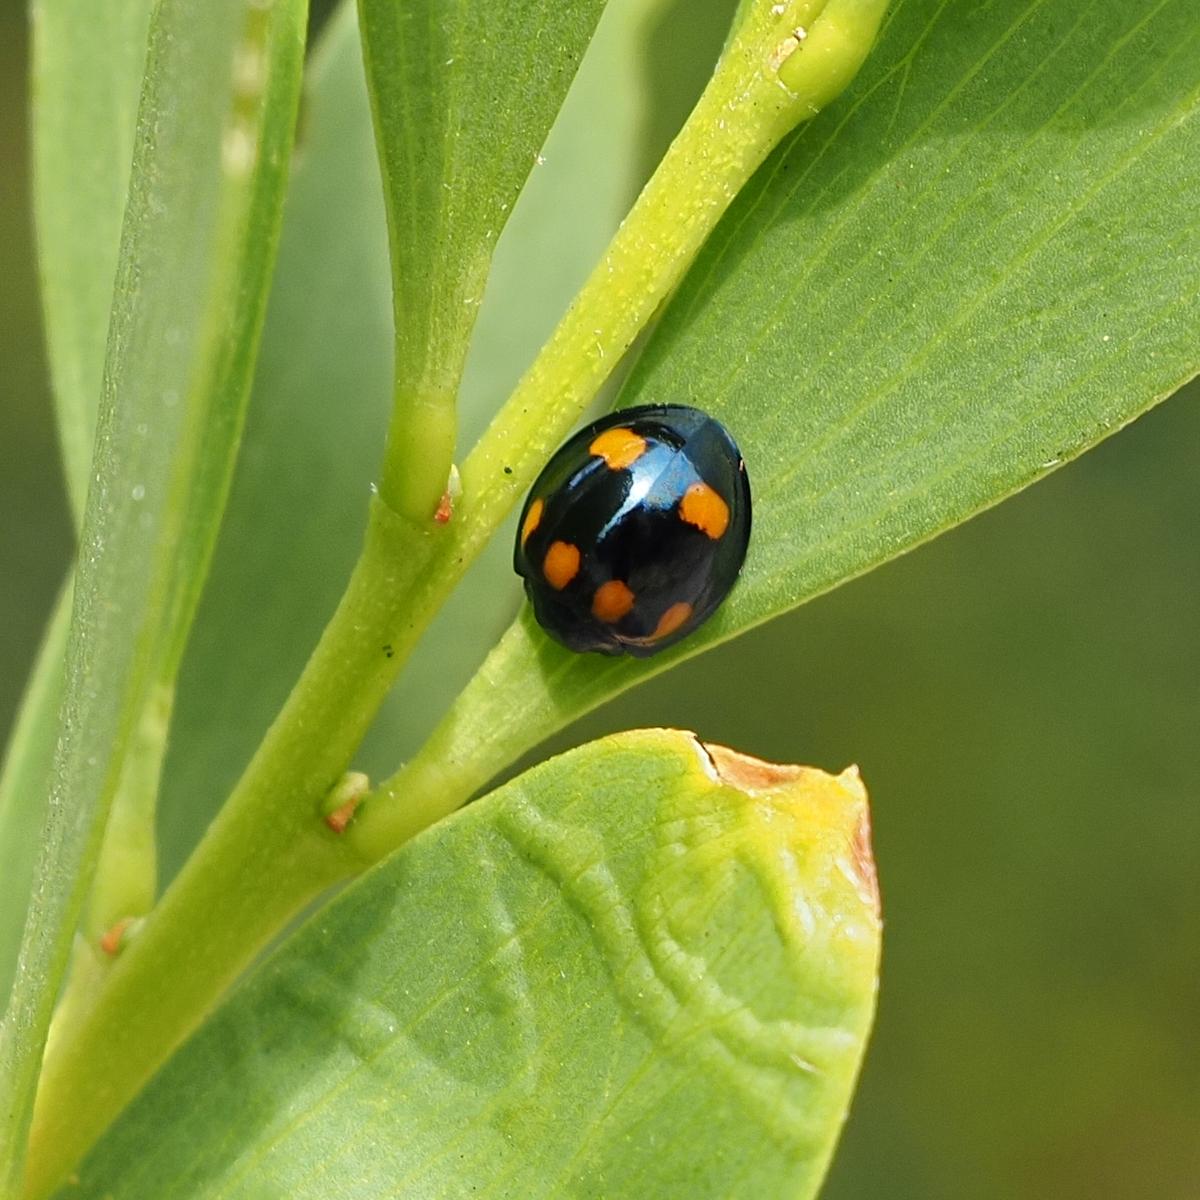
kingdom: Animalia
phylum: Arthropoda
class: Insecta
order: Coleoptera
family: Coccinellidae
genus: Orcus
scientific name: Orcus australasiae
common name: Lady beetle
